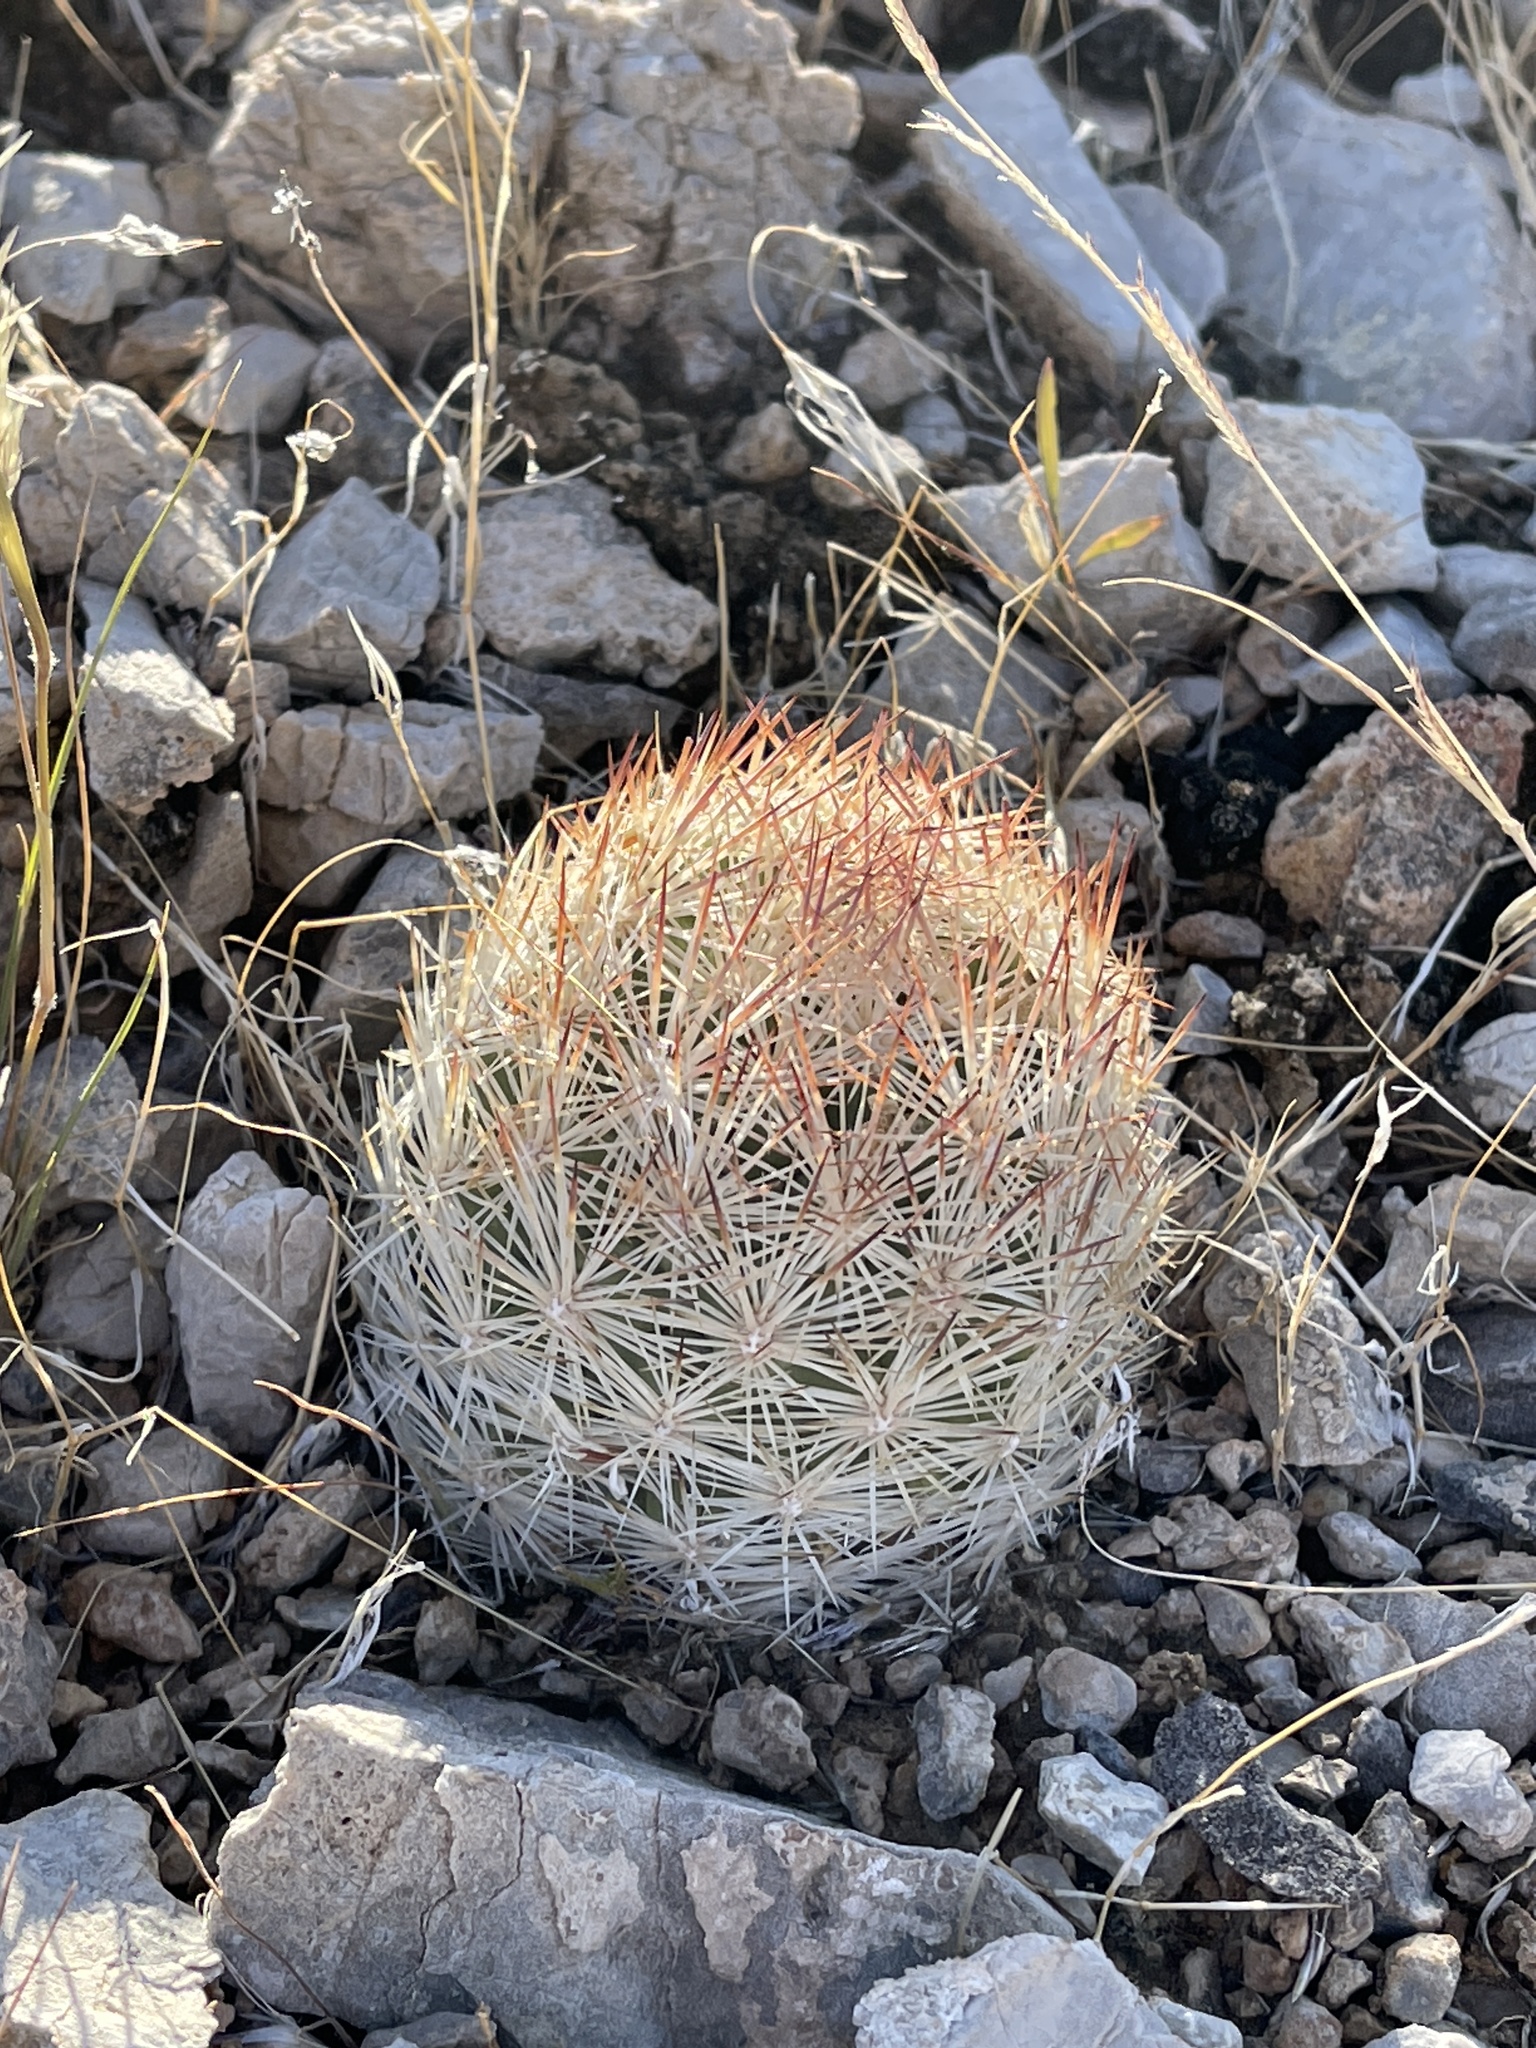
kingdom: Plantae
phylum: Tracheophyta
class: Magnoliopsida
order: Caryophyllales
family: Cactaceae
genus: Pelecyphora
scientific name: Pelecyphora dasyacantha
